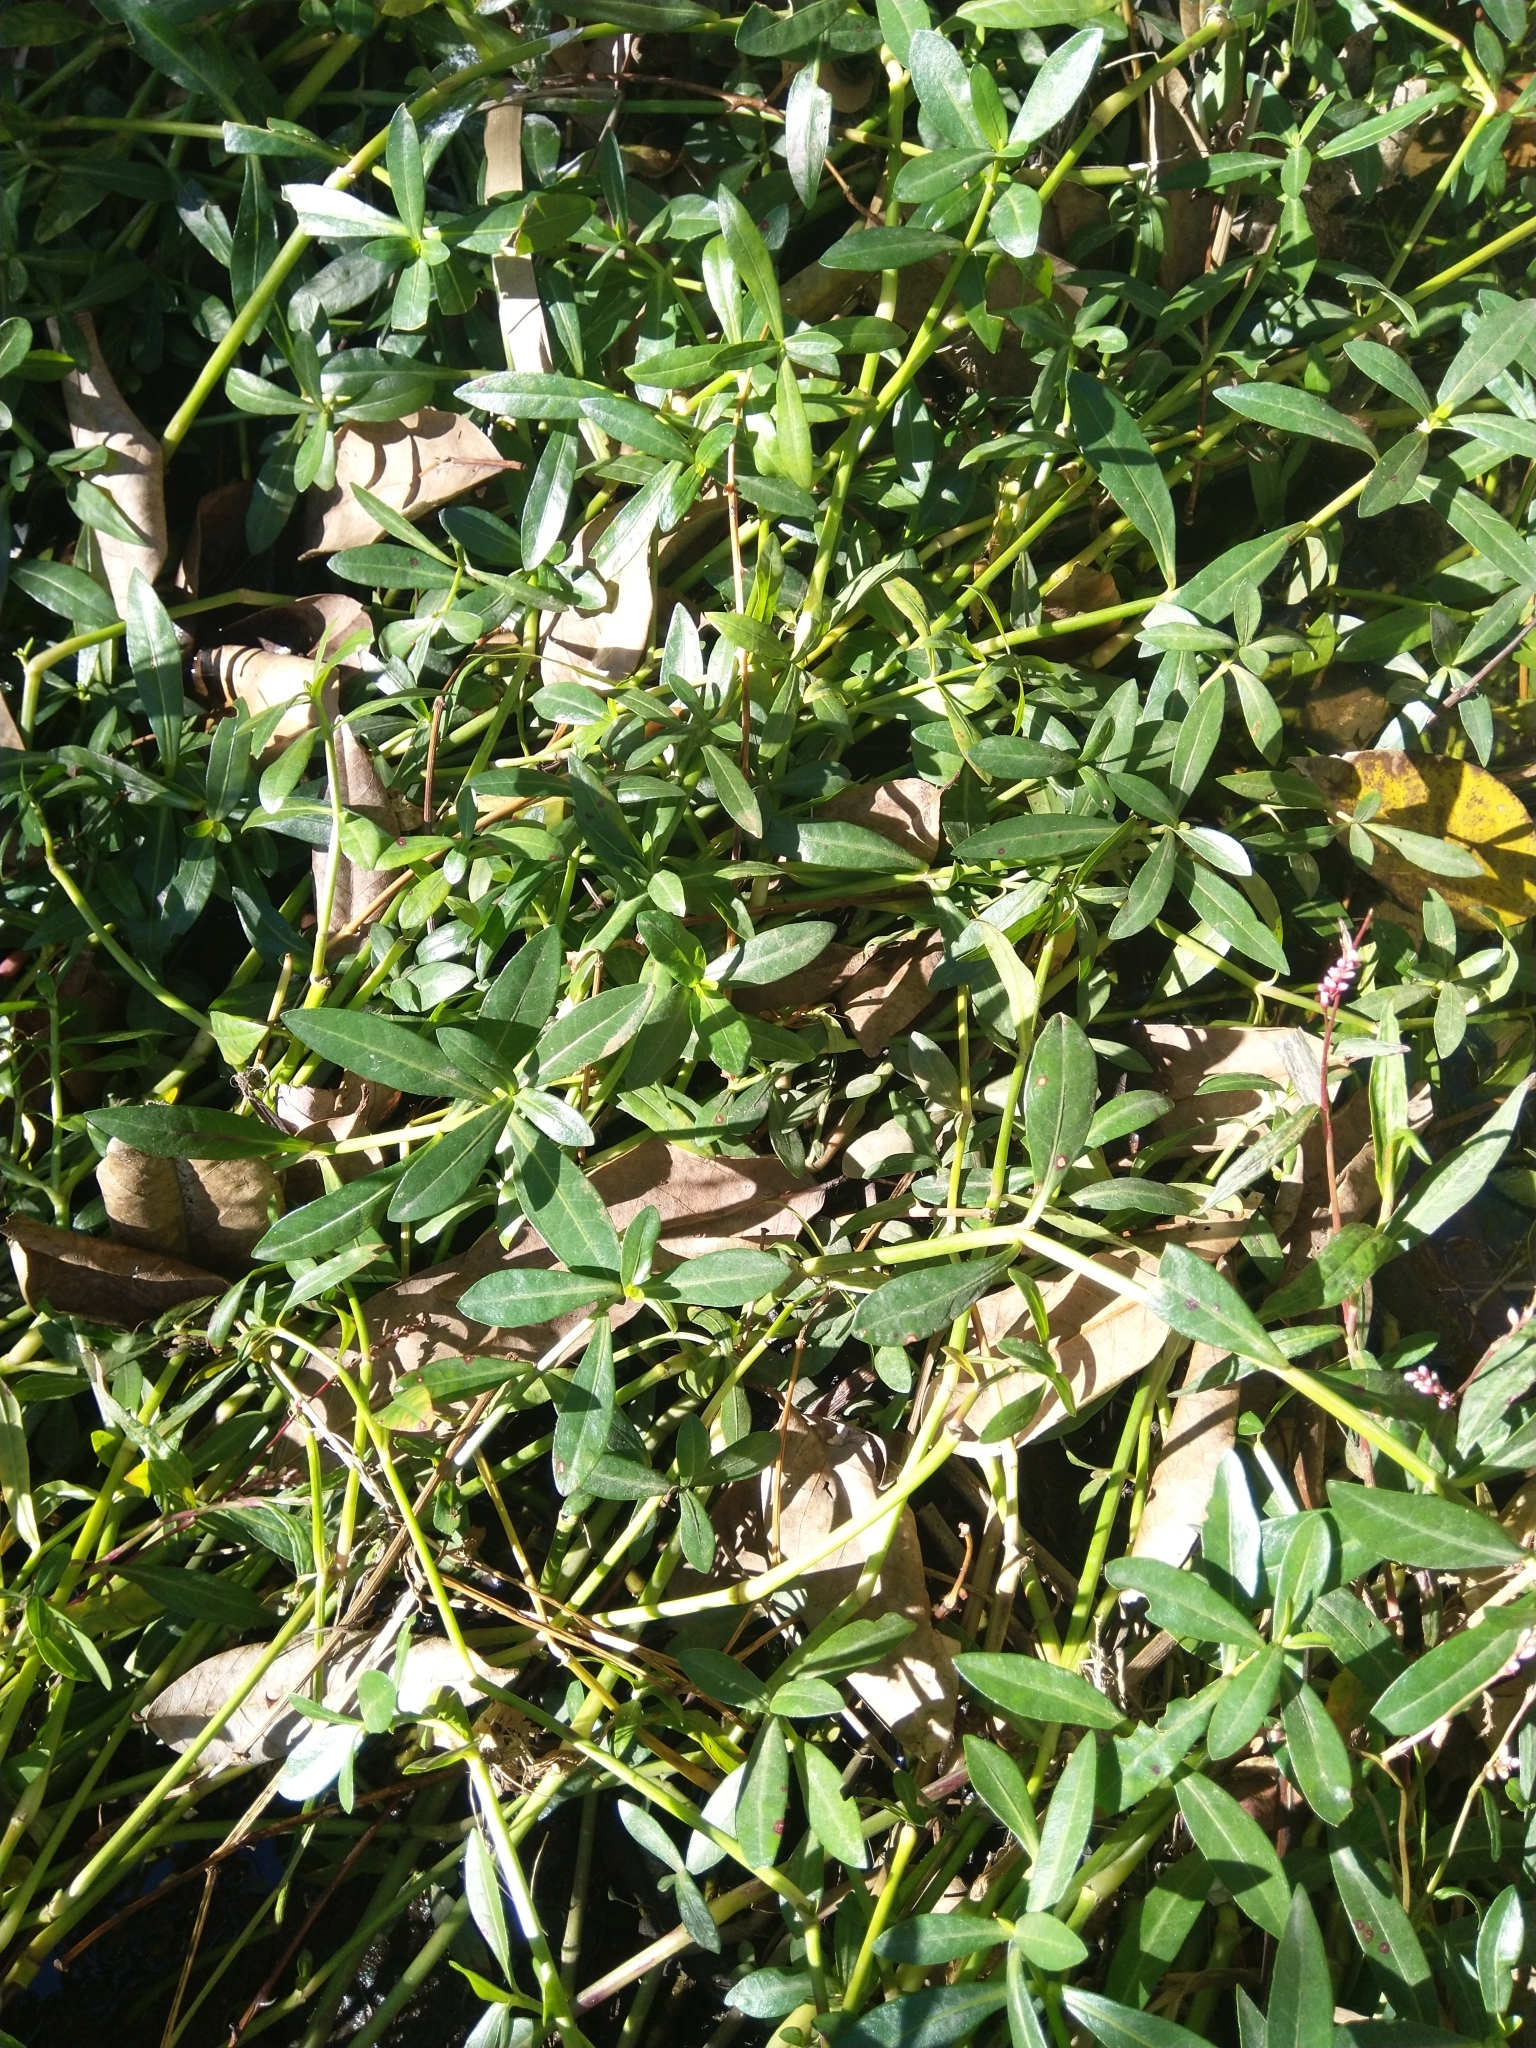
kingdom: Plantae
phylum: Tracheophyta
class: Magnoliopsida
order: Caryophyllales
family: Amaranthaceae
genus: Alternanthera
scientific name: Alternanthera philoxeroides
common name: Alligatorweed
